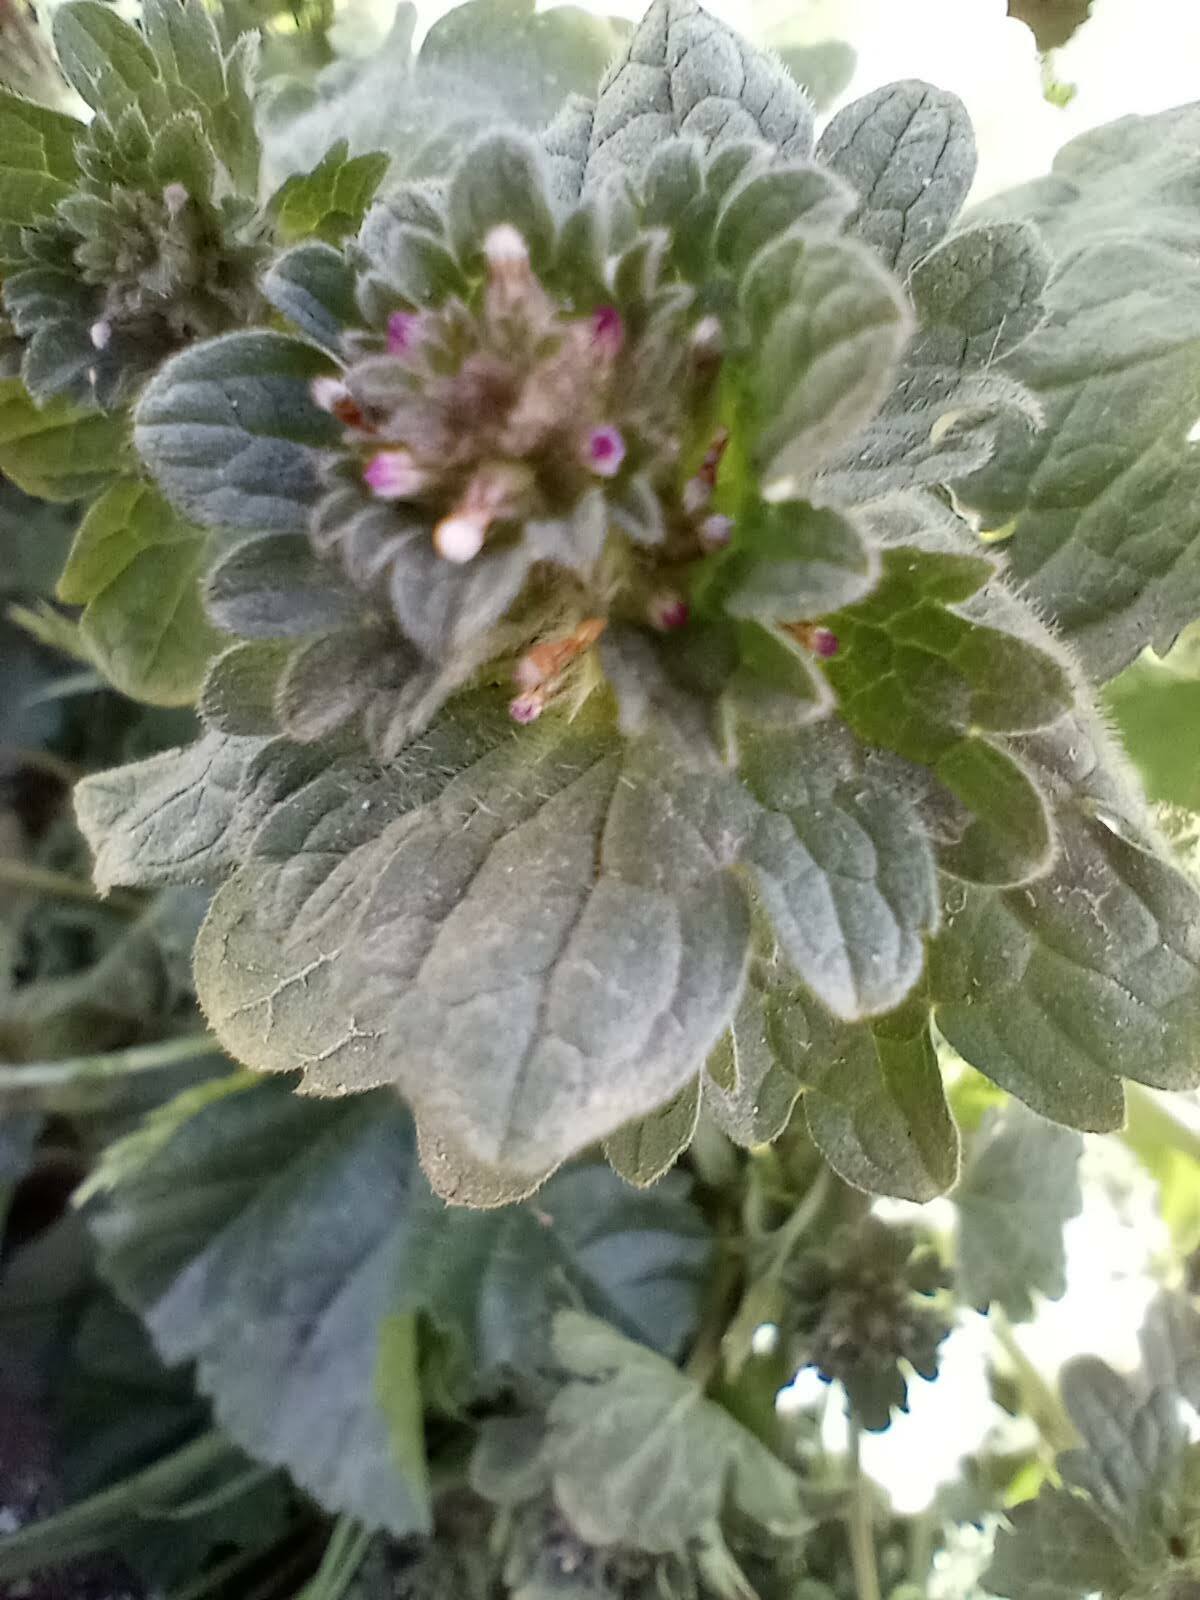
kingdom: Plantae
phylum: Tracheophyta
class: Magnoliopsida
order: Lamiales
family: Lamiaceae
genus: Lamium
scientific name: Lamium amplexicaule
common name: Henbit dead-nettle
